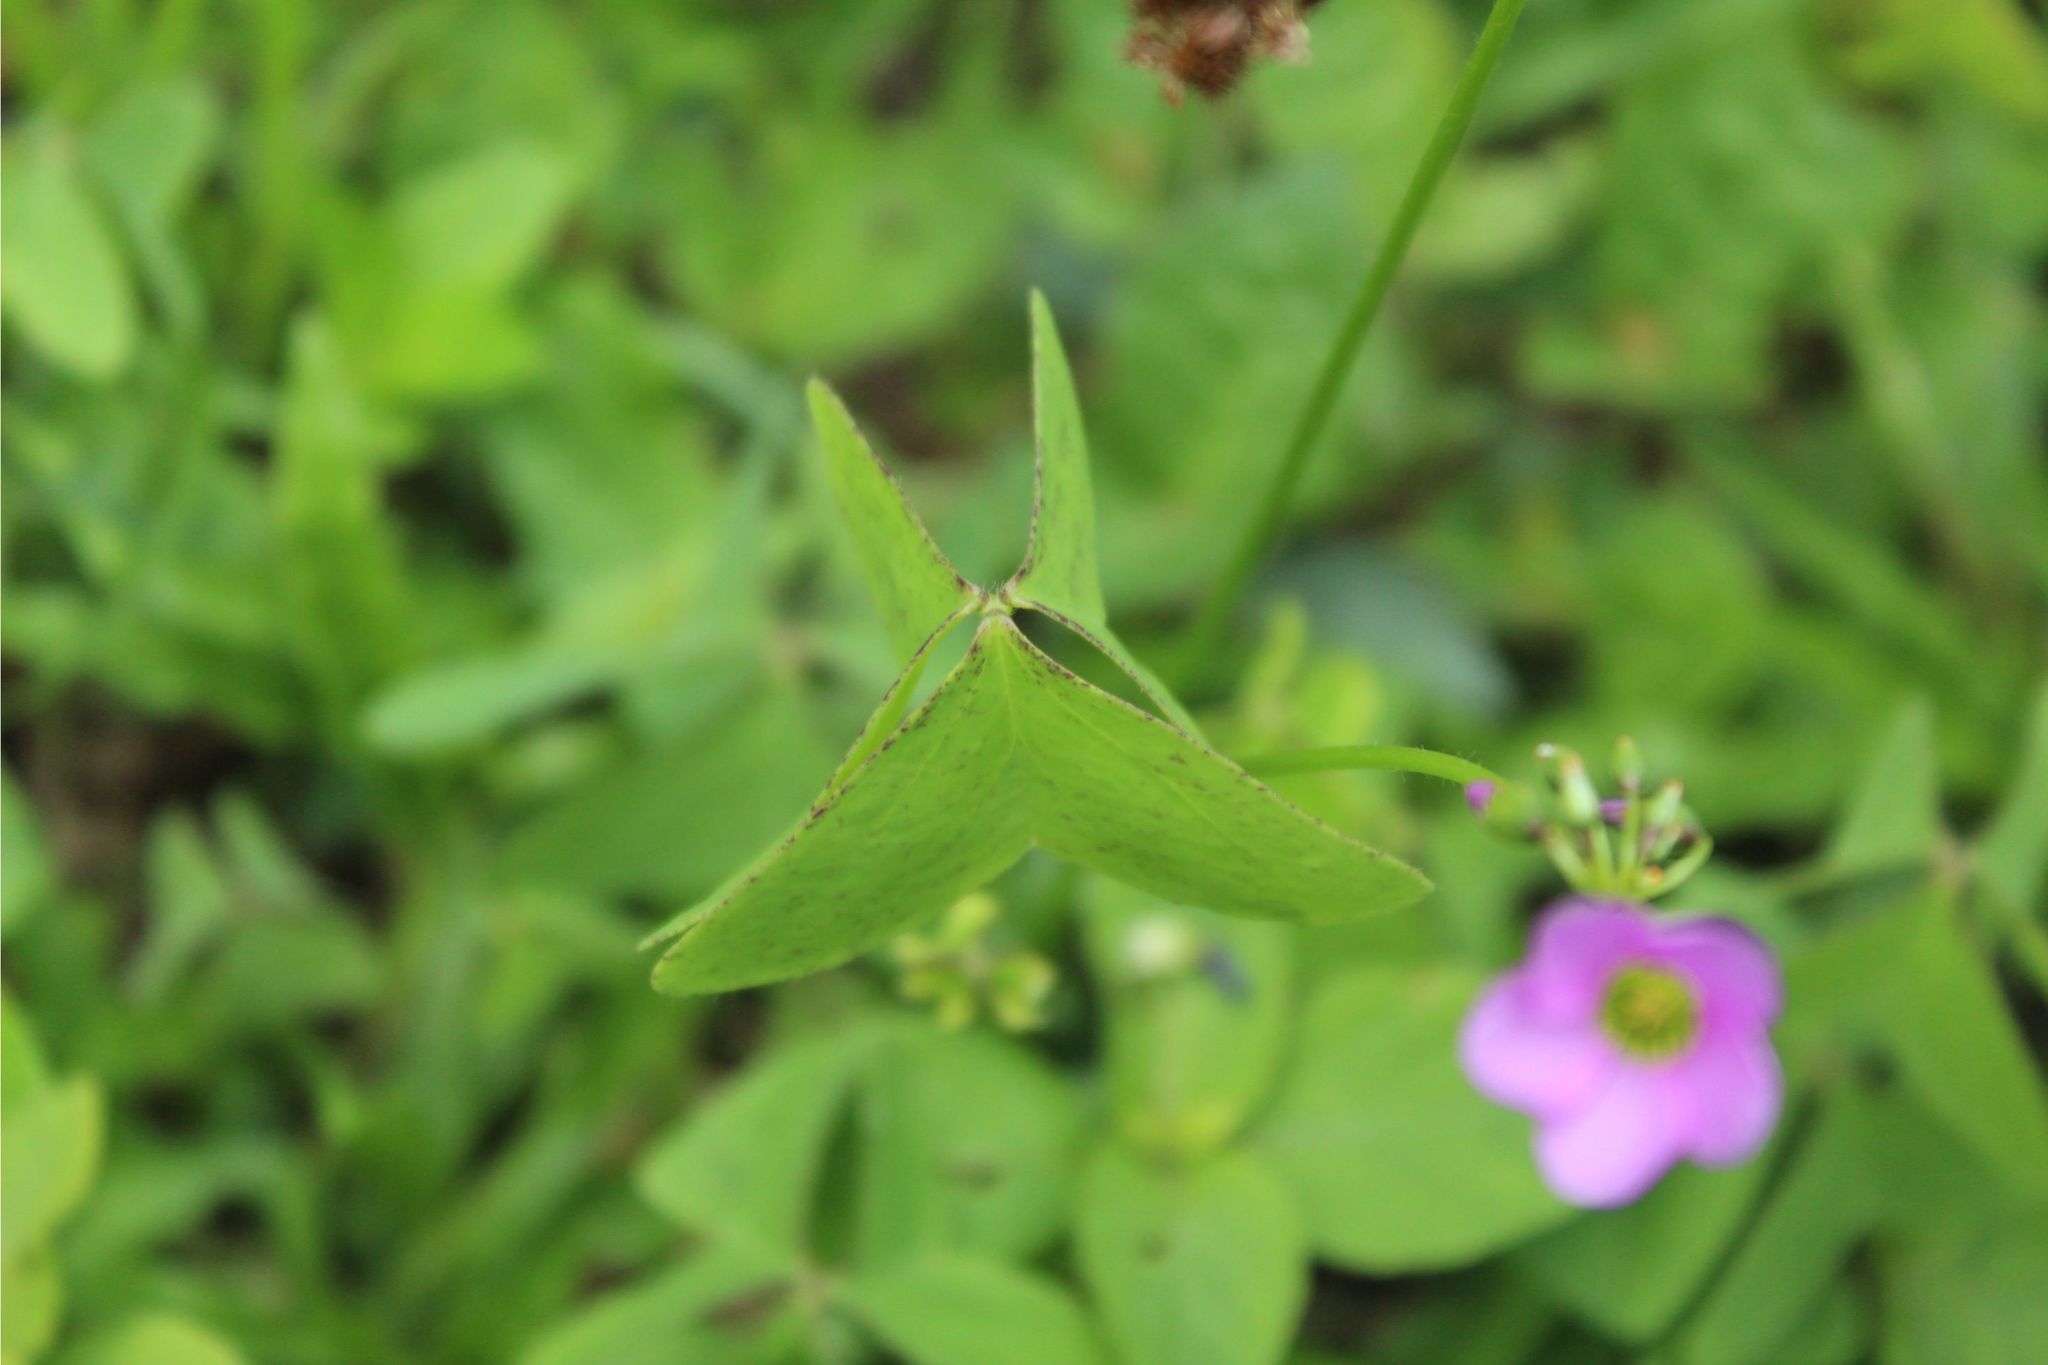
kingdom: Plantae
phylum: Tracheophyta
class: Magnoliopsida
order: Oxalidales
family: Oxalidaceae
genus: Oxalis
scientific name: Oxalis latifolia
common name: Garden pink-sorrel
